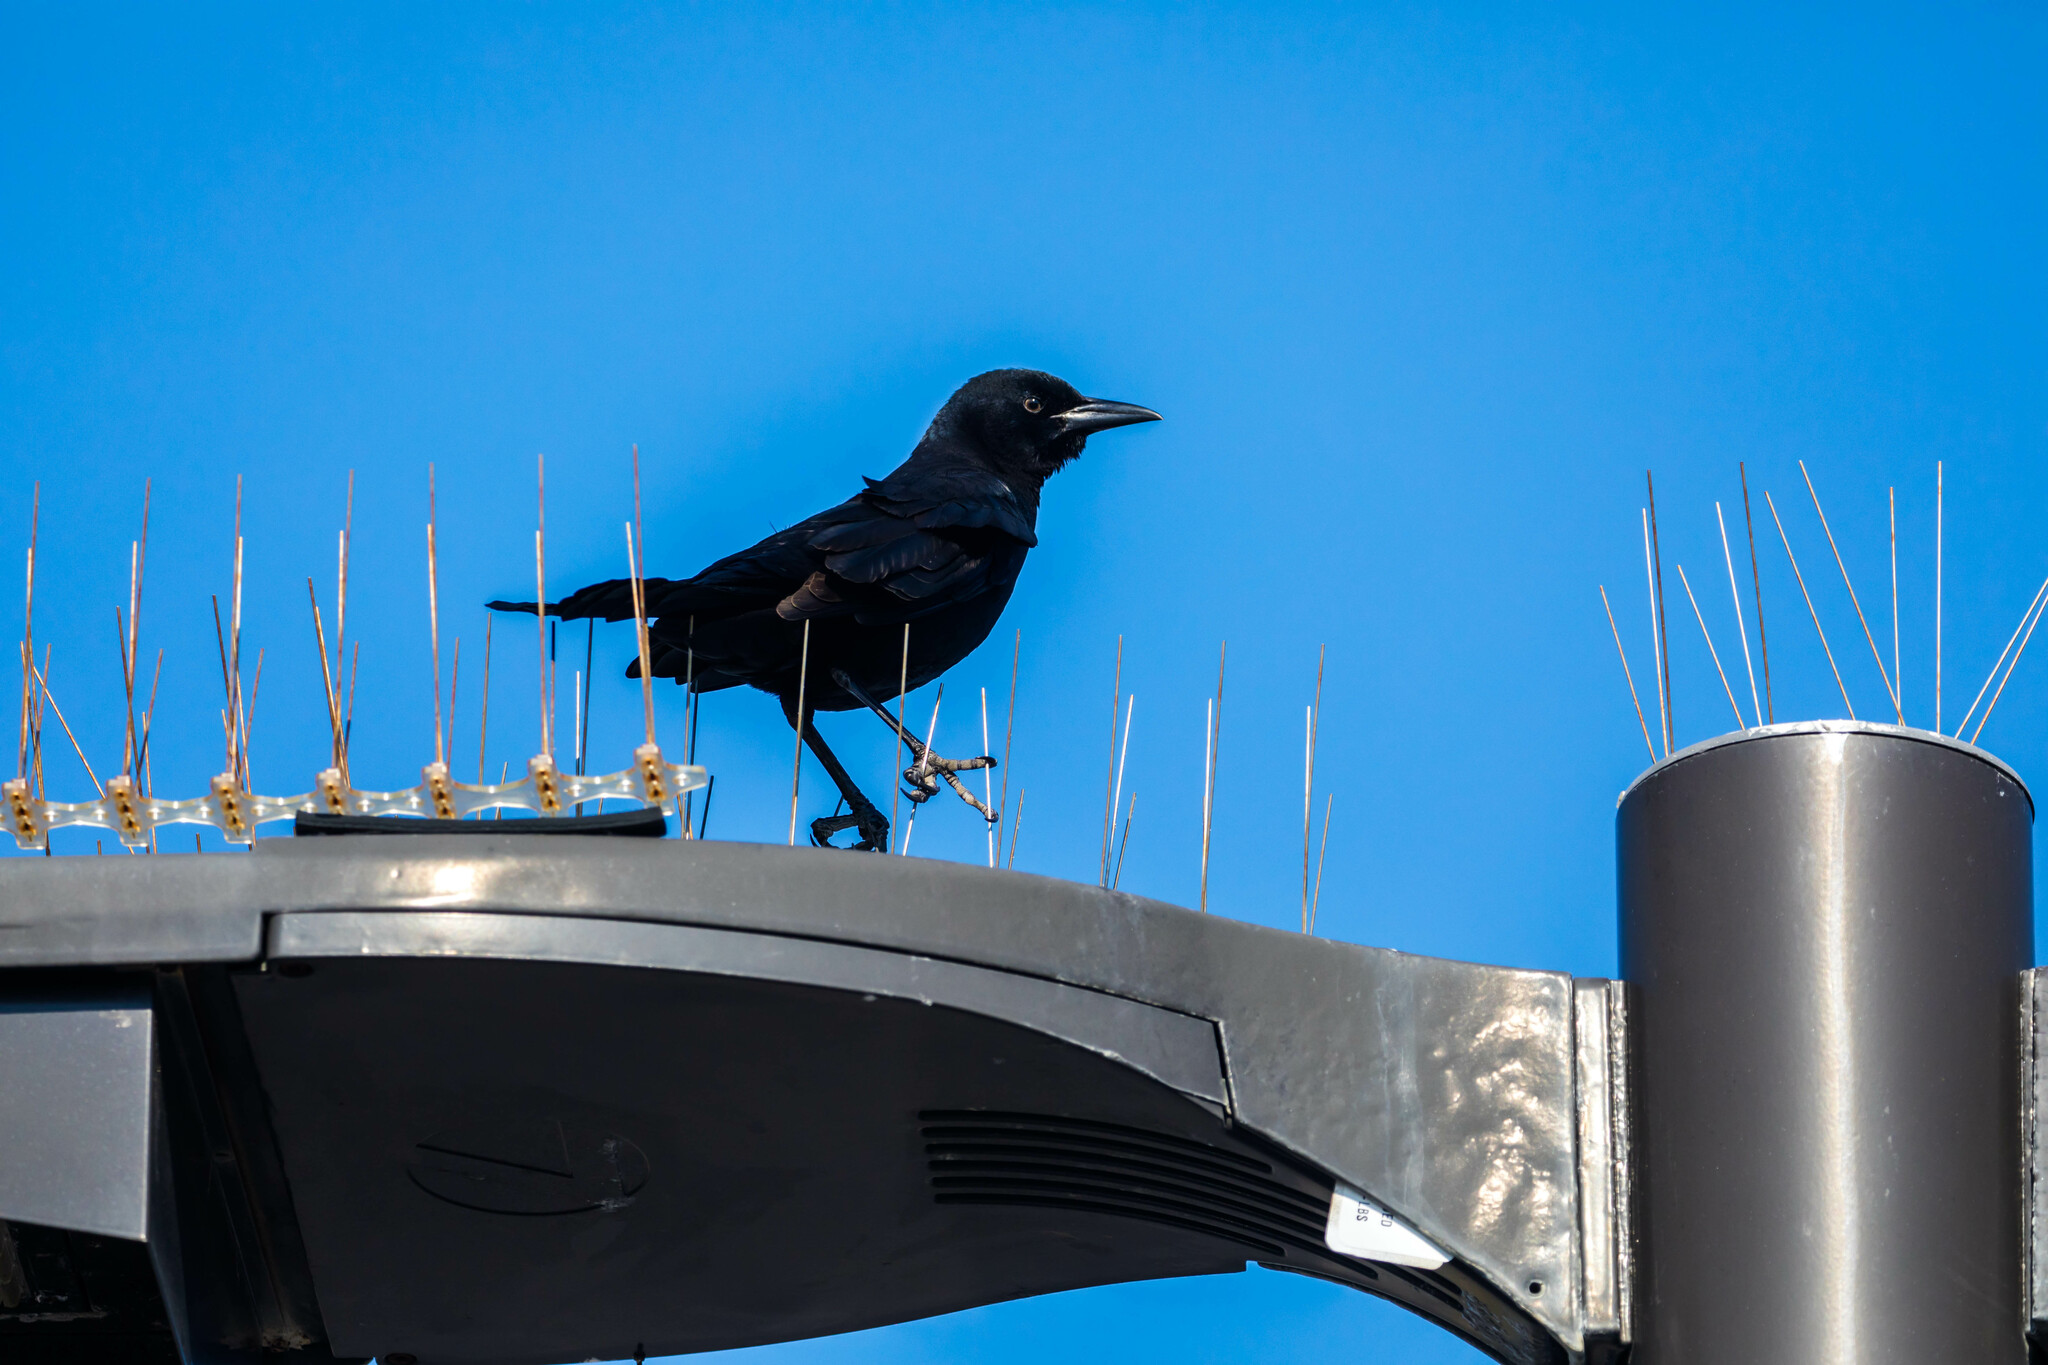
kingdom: Animalia
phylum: Chordata
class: Aves
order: Passeriformes
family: Icteridae
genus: Quiscalus
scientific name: Quiscalus major
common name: Boat-tailed grackle
